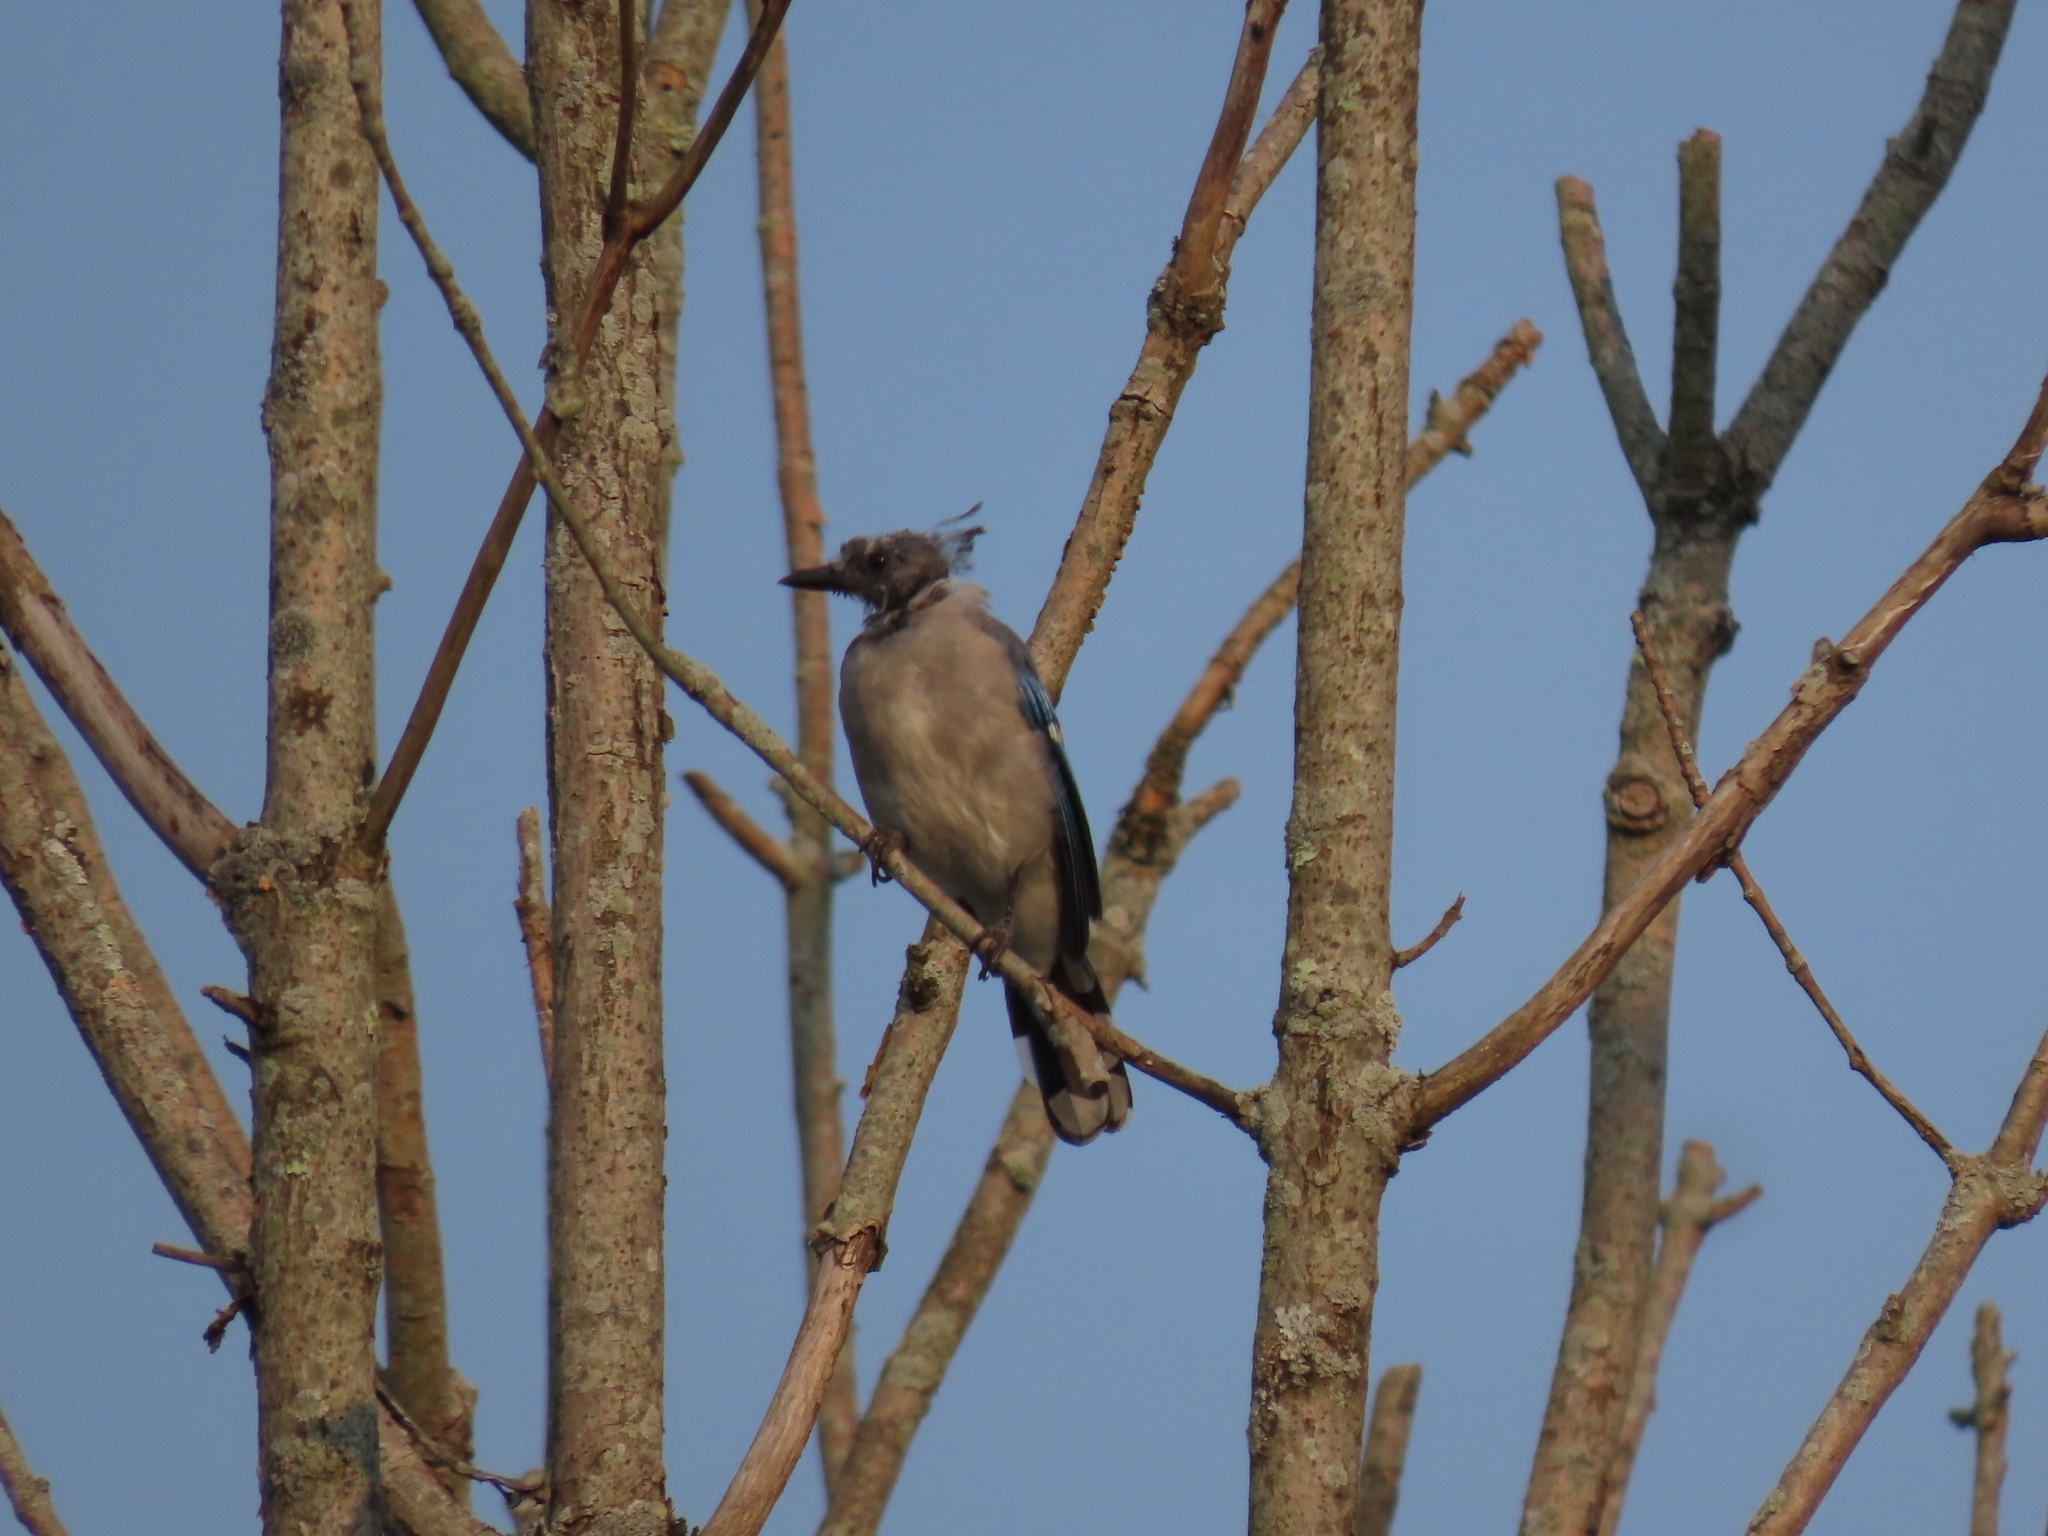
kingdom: Animalia
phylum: Chordata
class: Aves
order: Passeriformes
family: Corvidae
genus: Cyanocitta
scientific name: Cyanocitta cristata
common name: Blue jay
